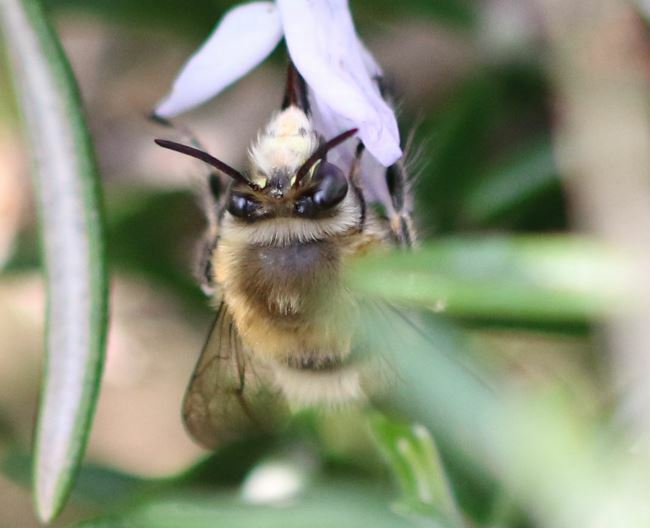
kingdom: Animalia
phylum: Arthropoda
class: Insecta
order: Hymenoptera
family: Apidae
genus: Anthophora
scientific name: Anthophora plumipes
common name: Hairy-footed flower bee
